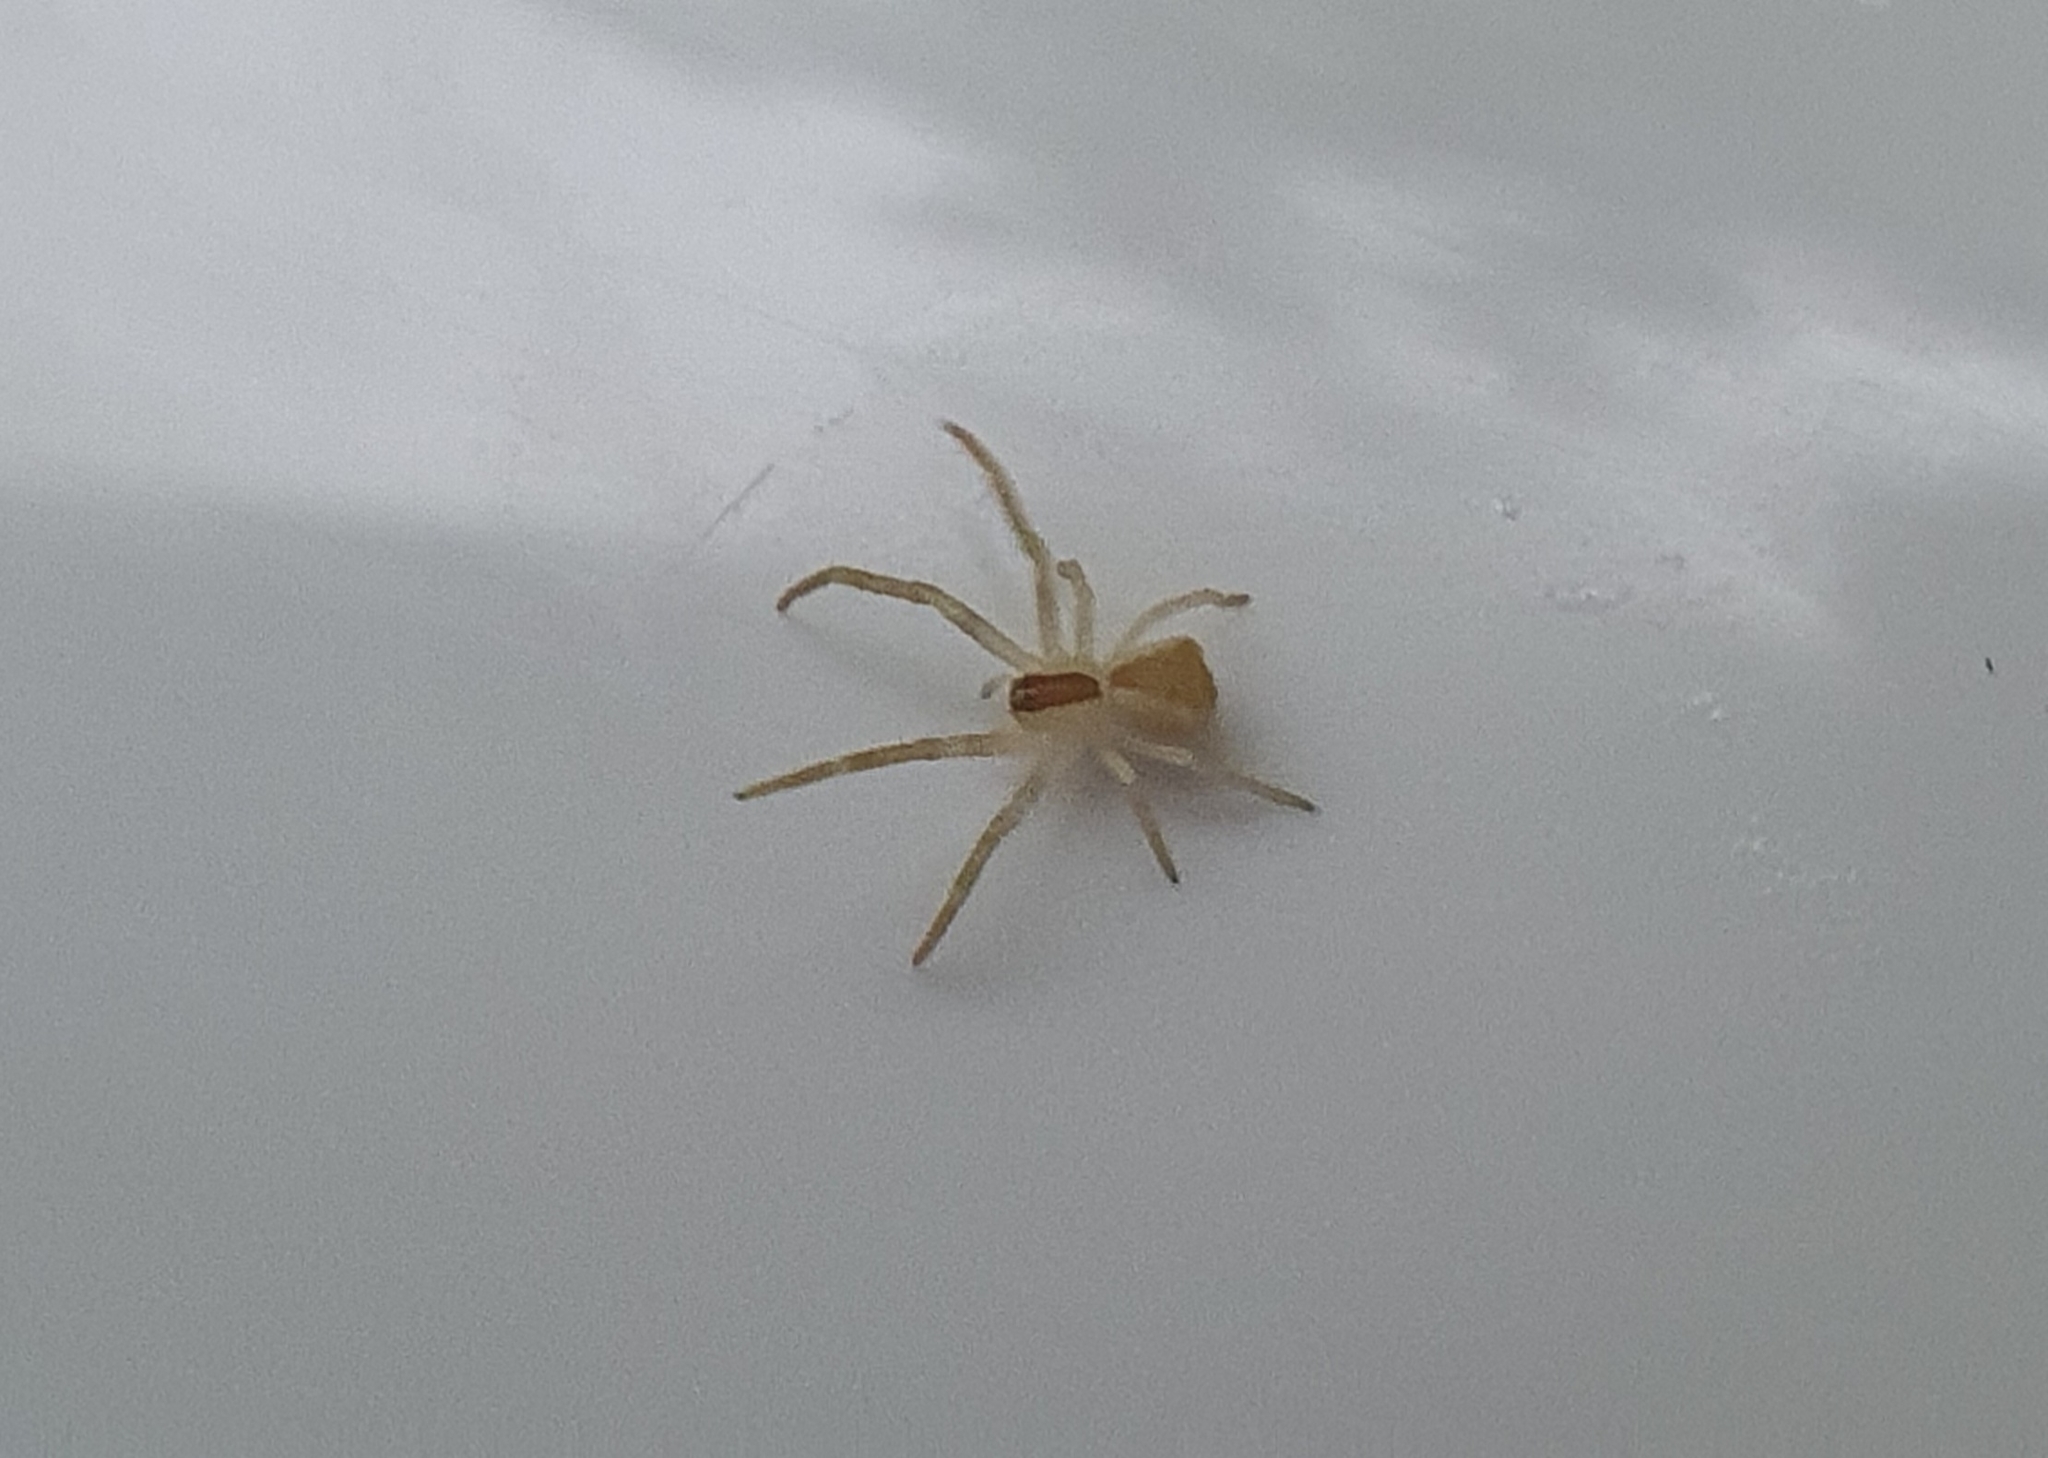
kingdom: Animalia
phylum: Arthropoda
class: Arachnida
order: Araneae
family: Thomisidae
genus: Sidymella
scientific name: Sidymella trapezia
